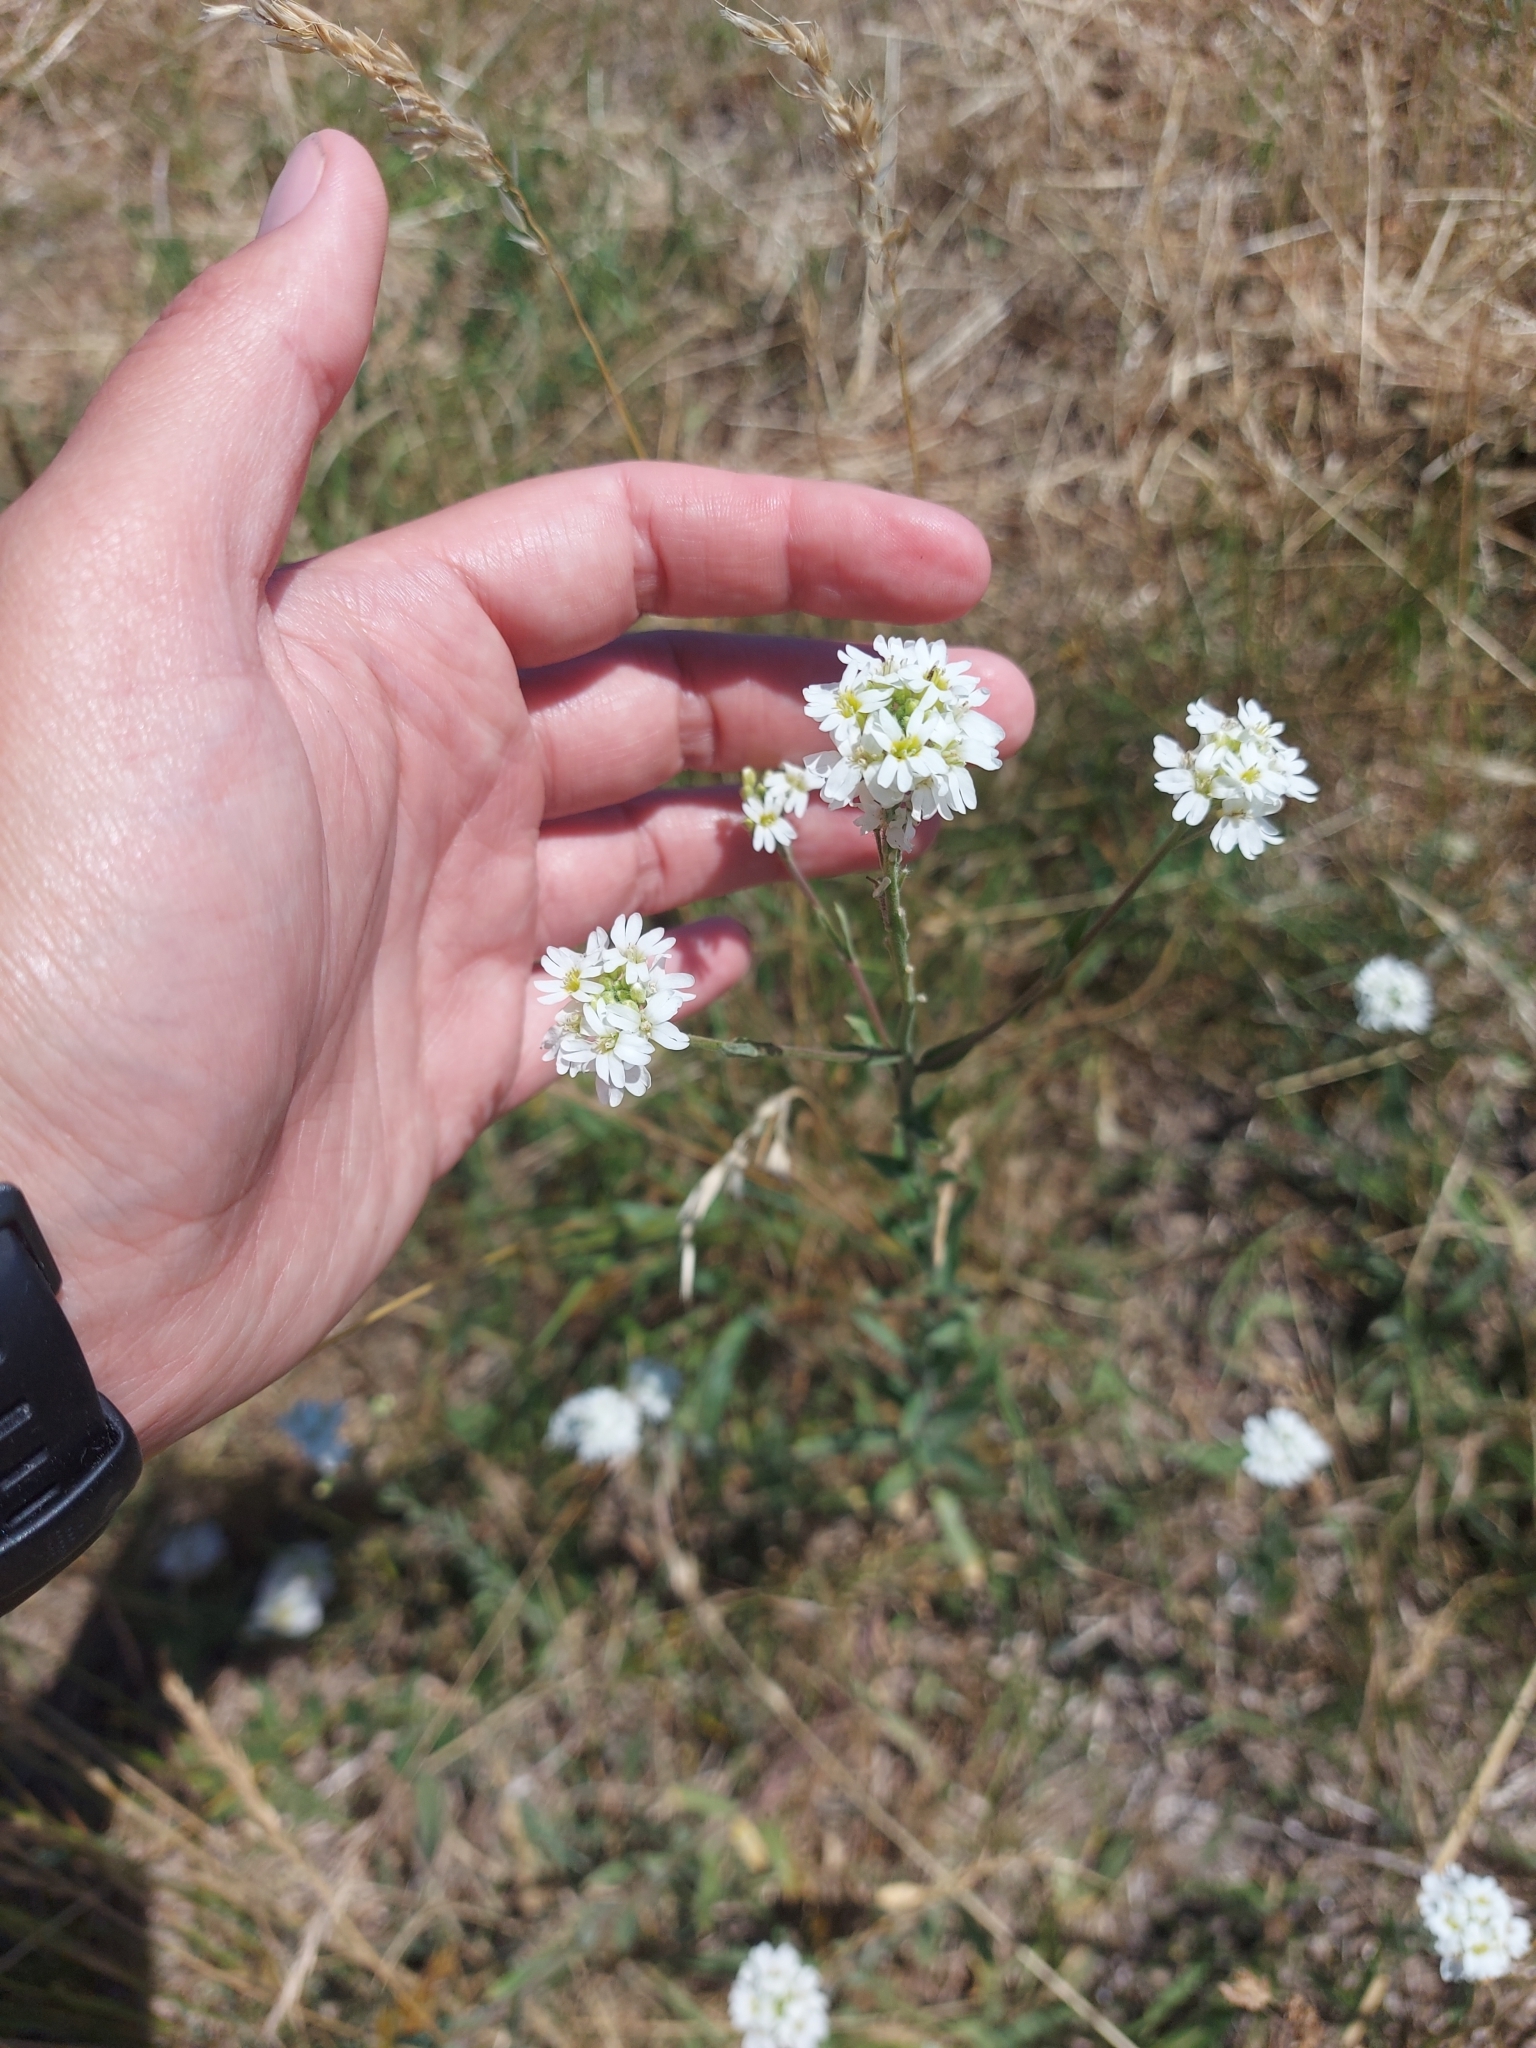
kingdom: Plantae
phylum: Tracheophyta
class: Magnoliopsida
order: Brassicales
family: Brassicaceae
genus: Berteroa
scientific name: Berteroa incana
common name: Hoary alison
